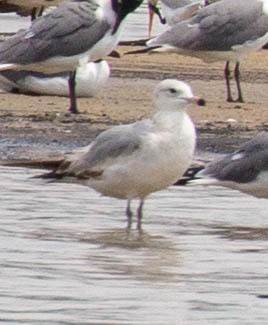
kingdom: Animalia
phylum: Chordata
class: Aves
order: Charadriiformes
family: Laridae
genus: Larus
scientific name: Larus delawarensis
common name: Ring-billed gull
